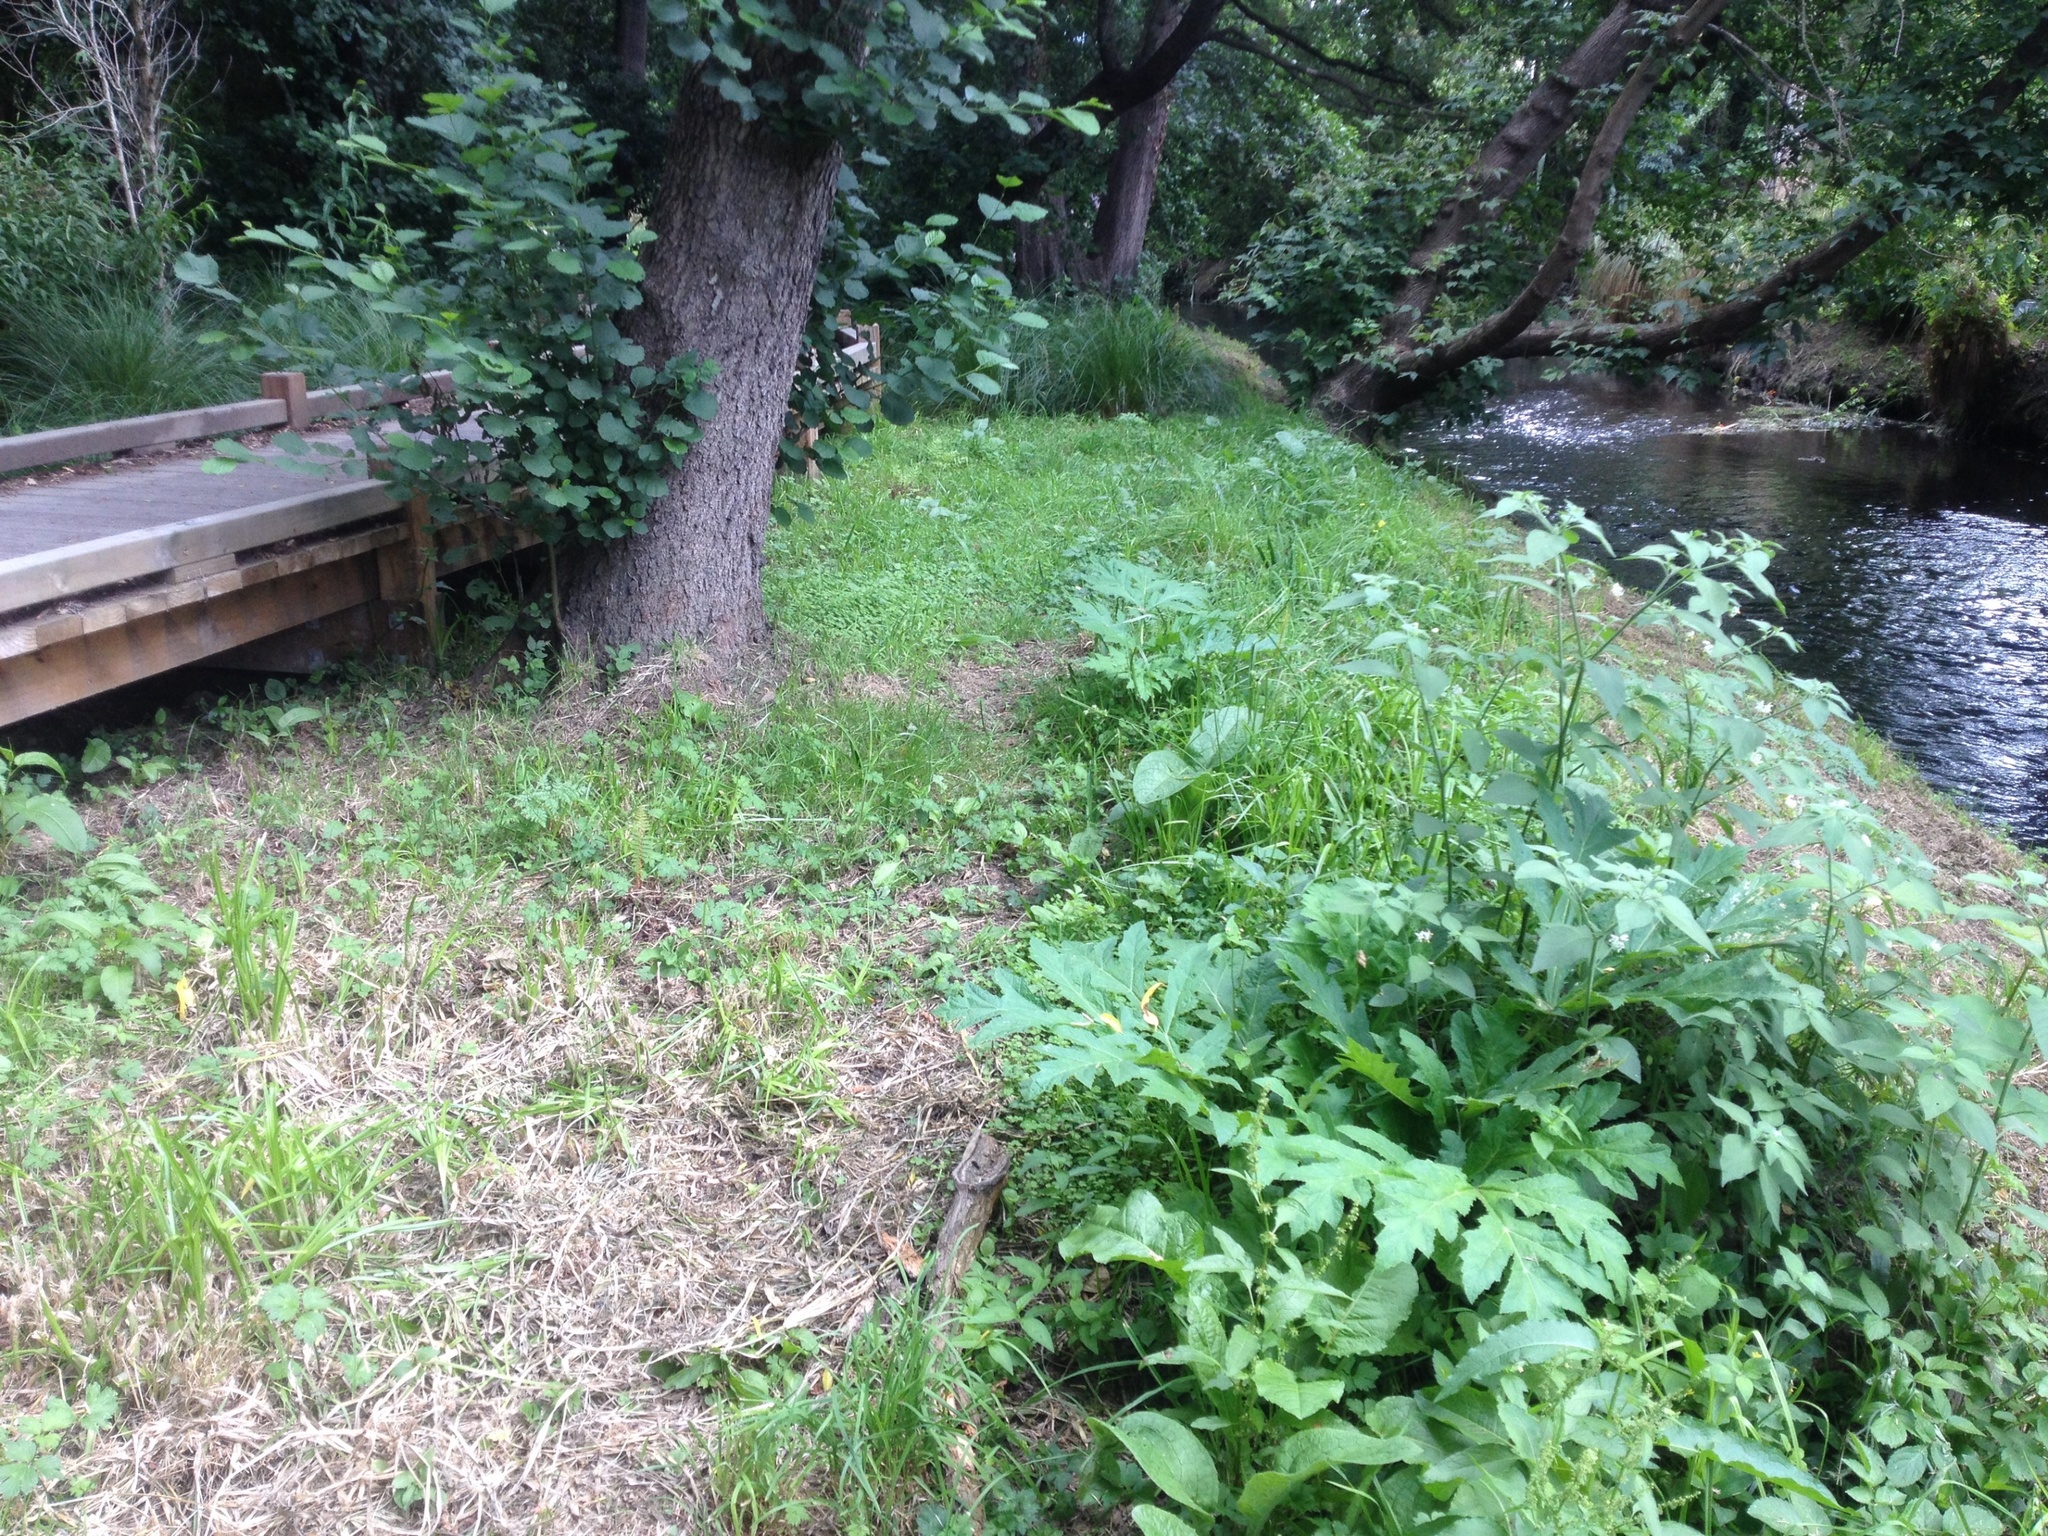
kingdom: Plantae
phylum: Tracheophyta
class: Magnoliopsida
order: Apiales
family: Apiaceae
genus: Heracleum
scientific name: Heracleum mantegazzianum
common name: Giant hogweed
